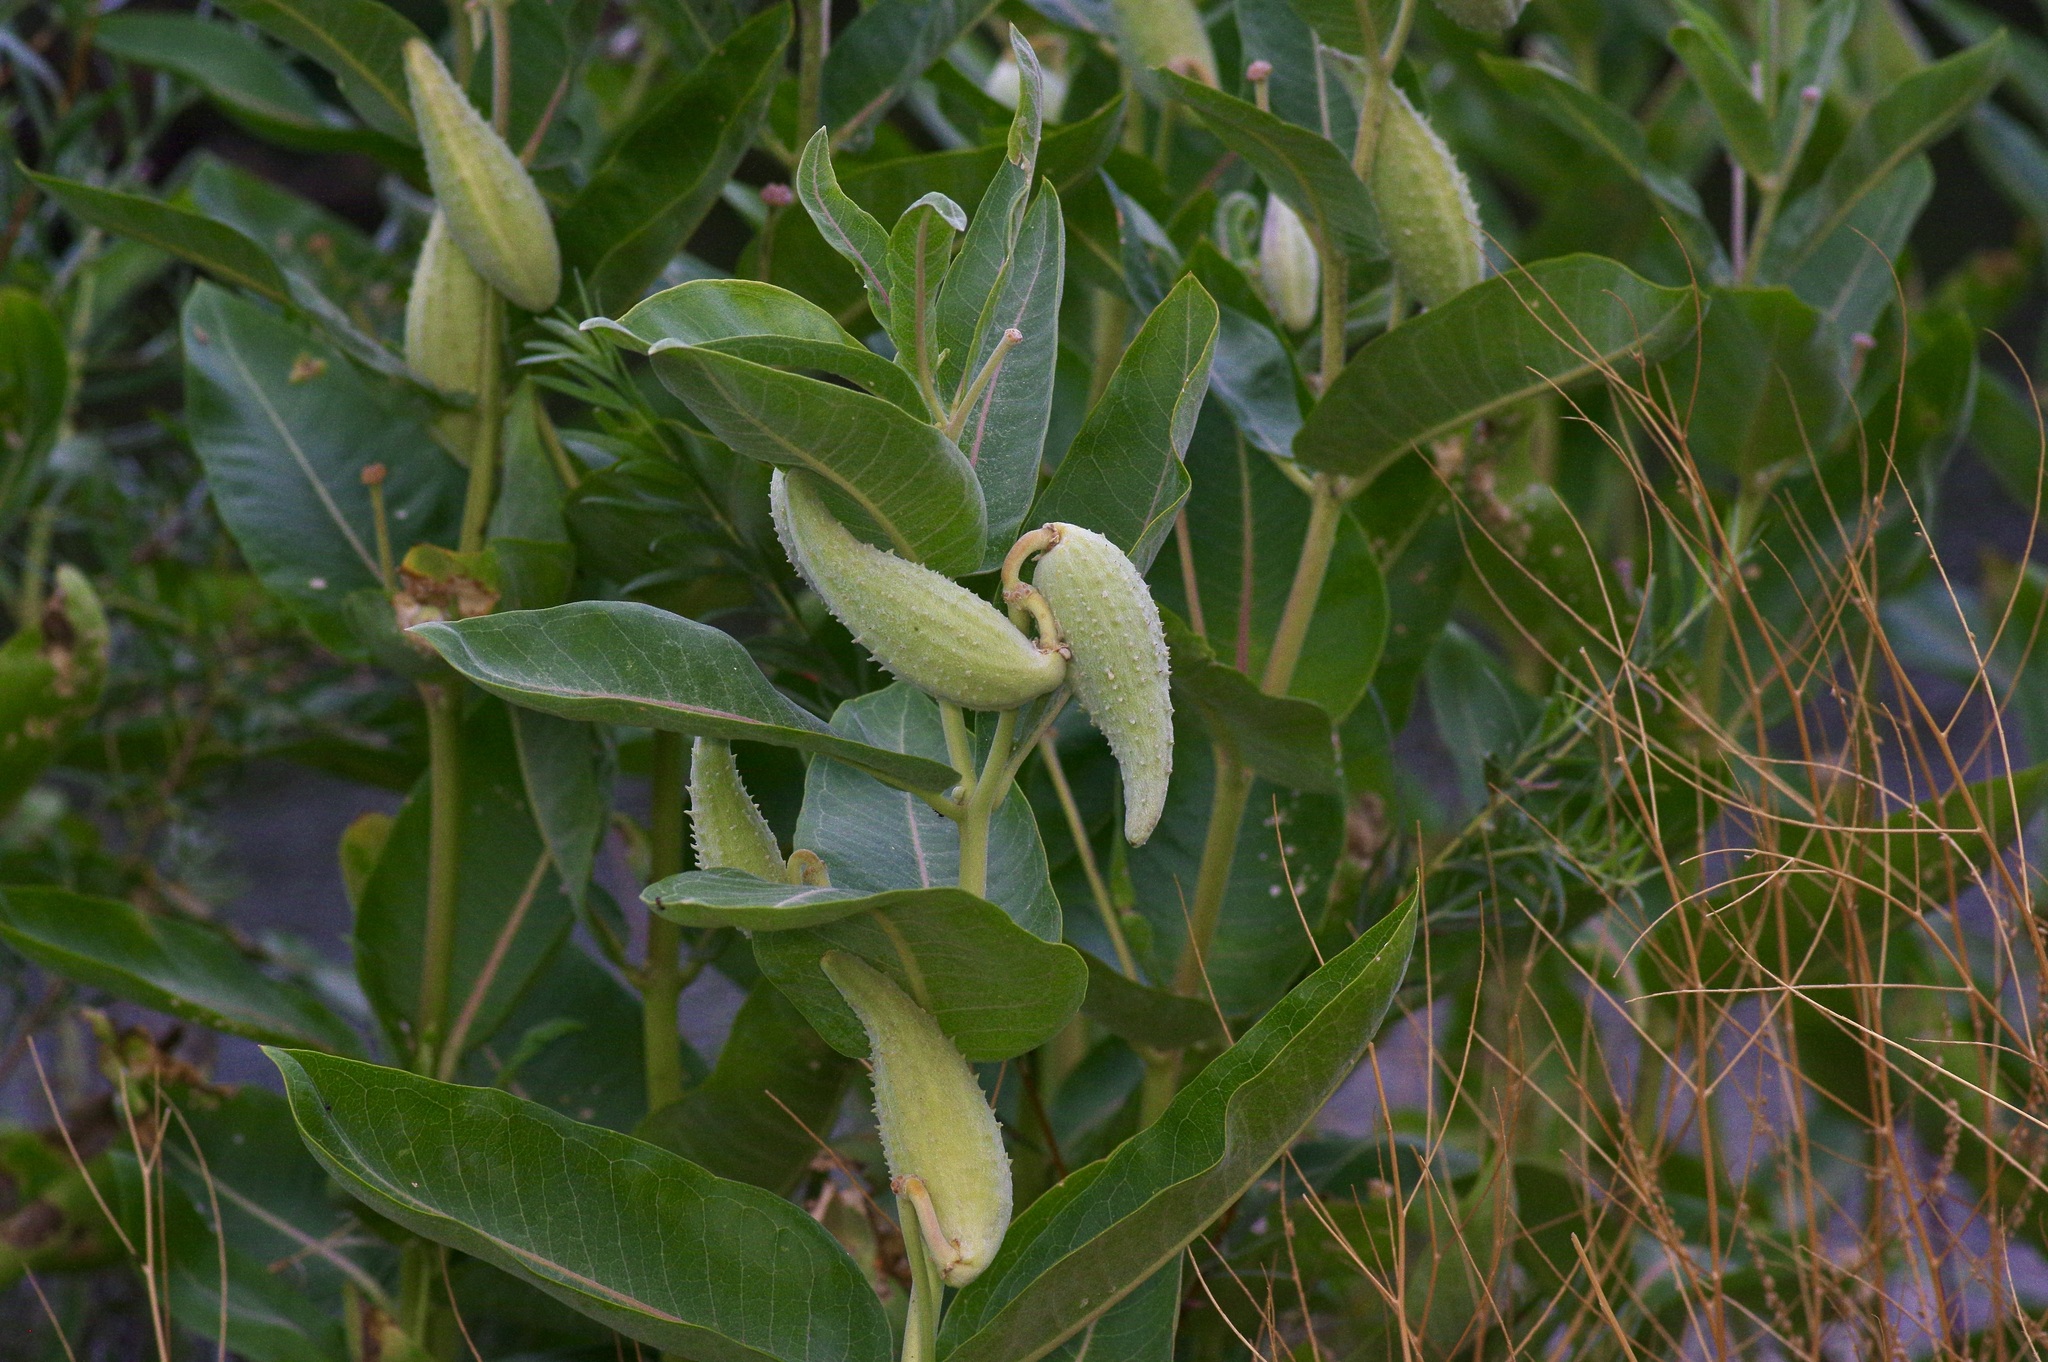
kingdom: Plantae
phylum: Tracheophyta
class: Magnoliopsida
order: Gentianales
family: Apocynaceae
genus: Asclepias
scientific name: Asclepias speciosa
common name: Showy milkweed
